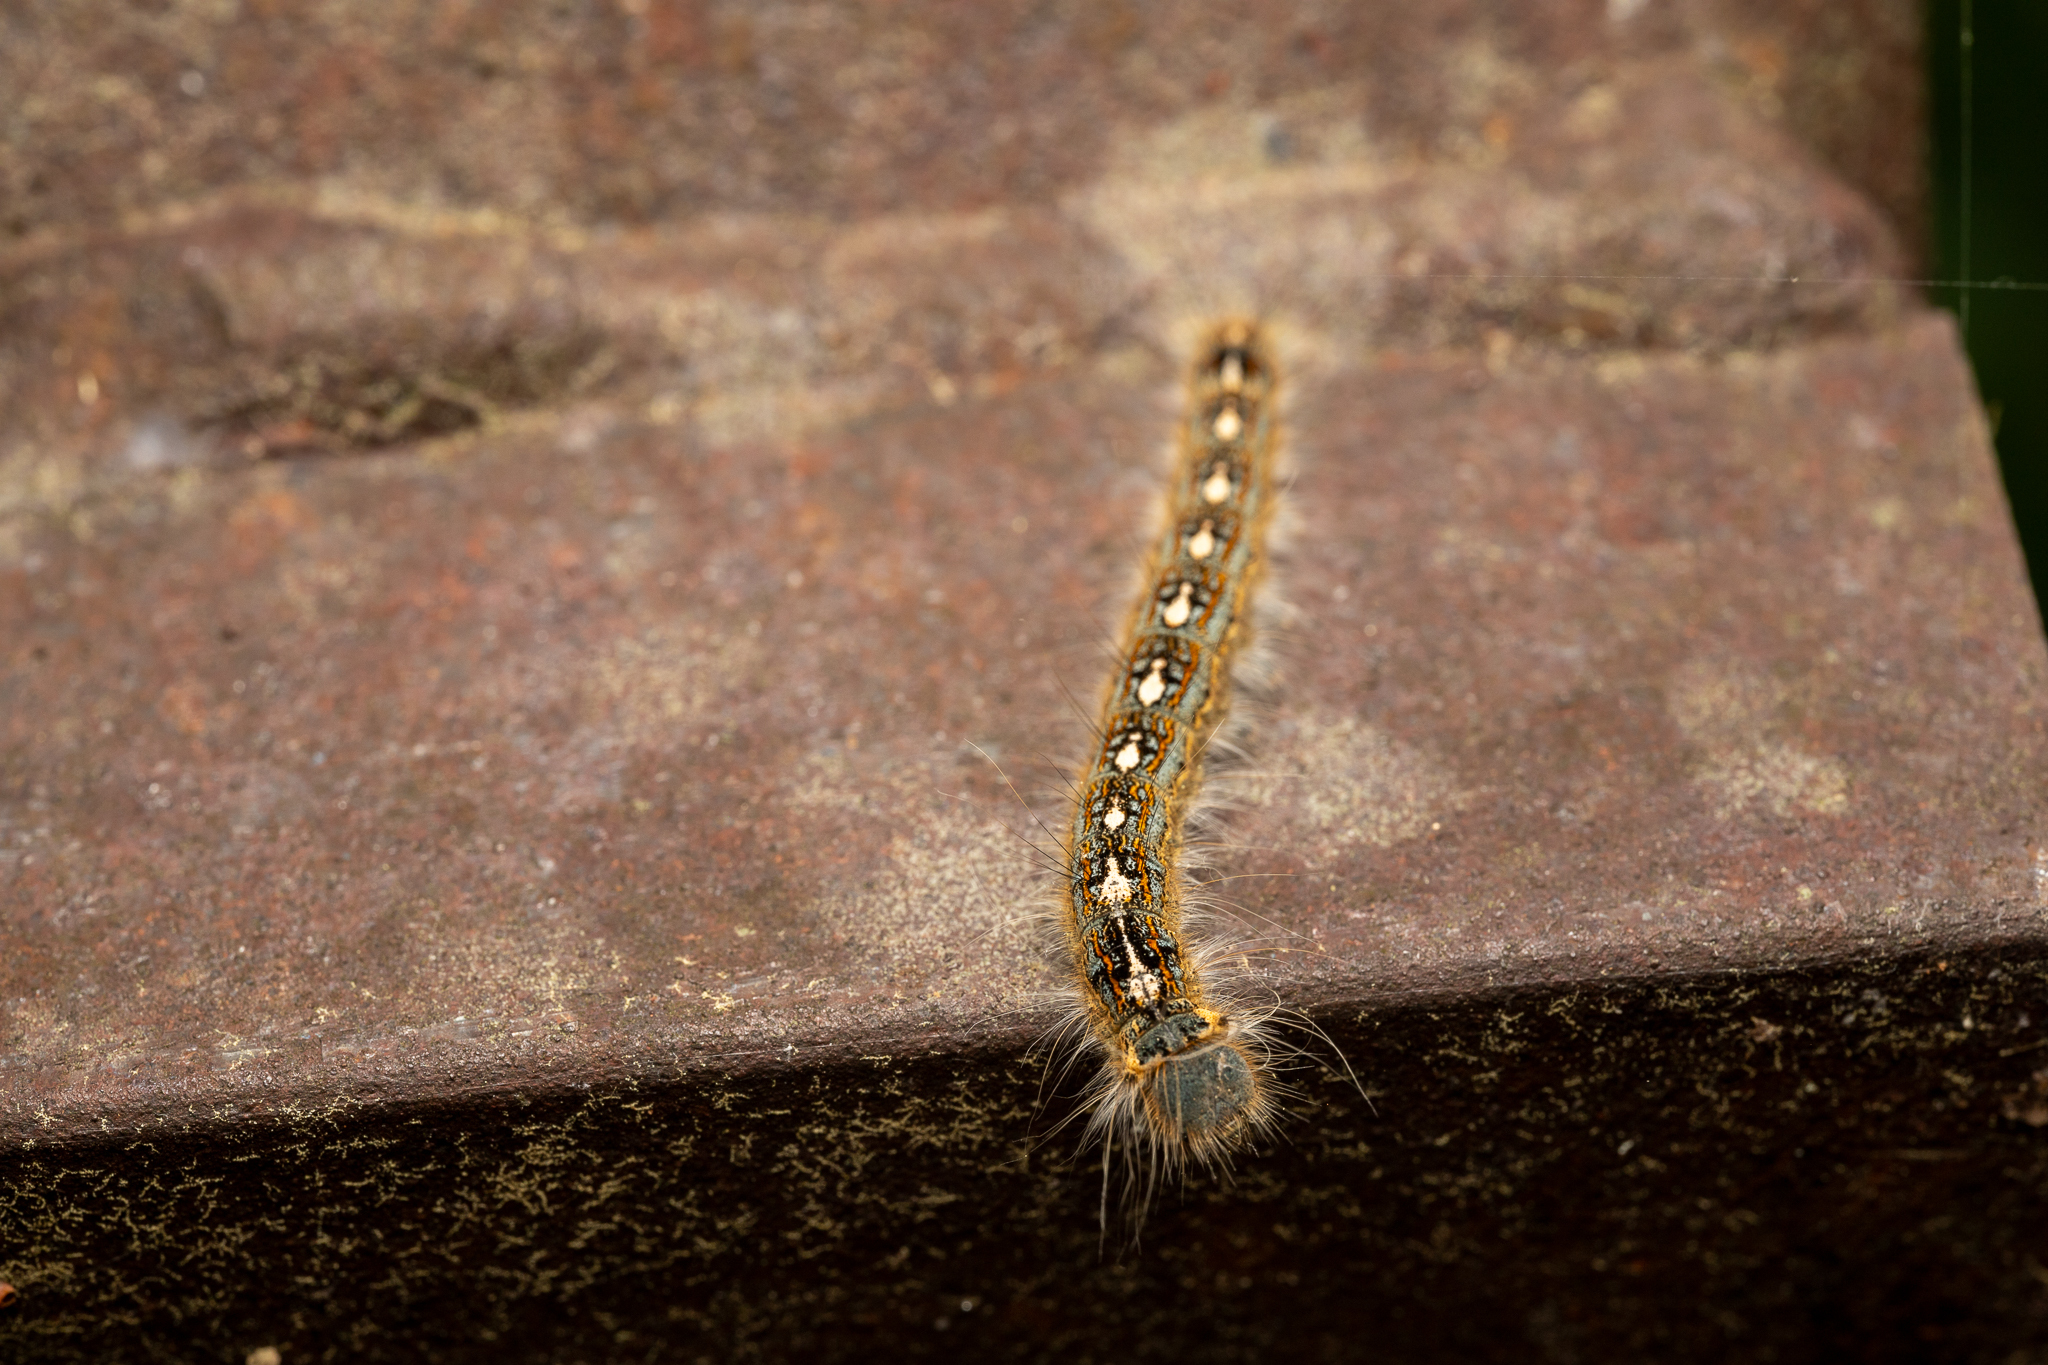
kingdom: Animalia
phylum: Arthropoda
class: Insecta
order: Lepidoptera
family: Lasiocampidae
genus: Malacosoma
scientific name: Malacosoma disstria
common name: Forest tent caterpillar
